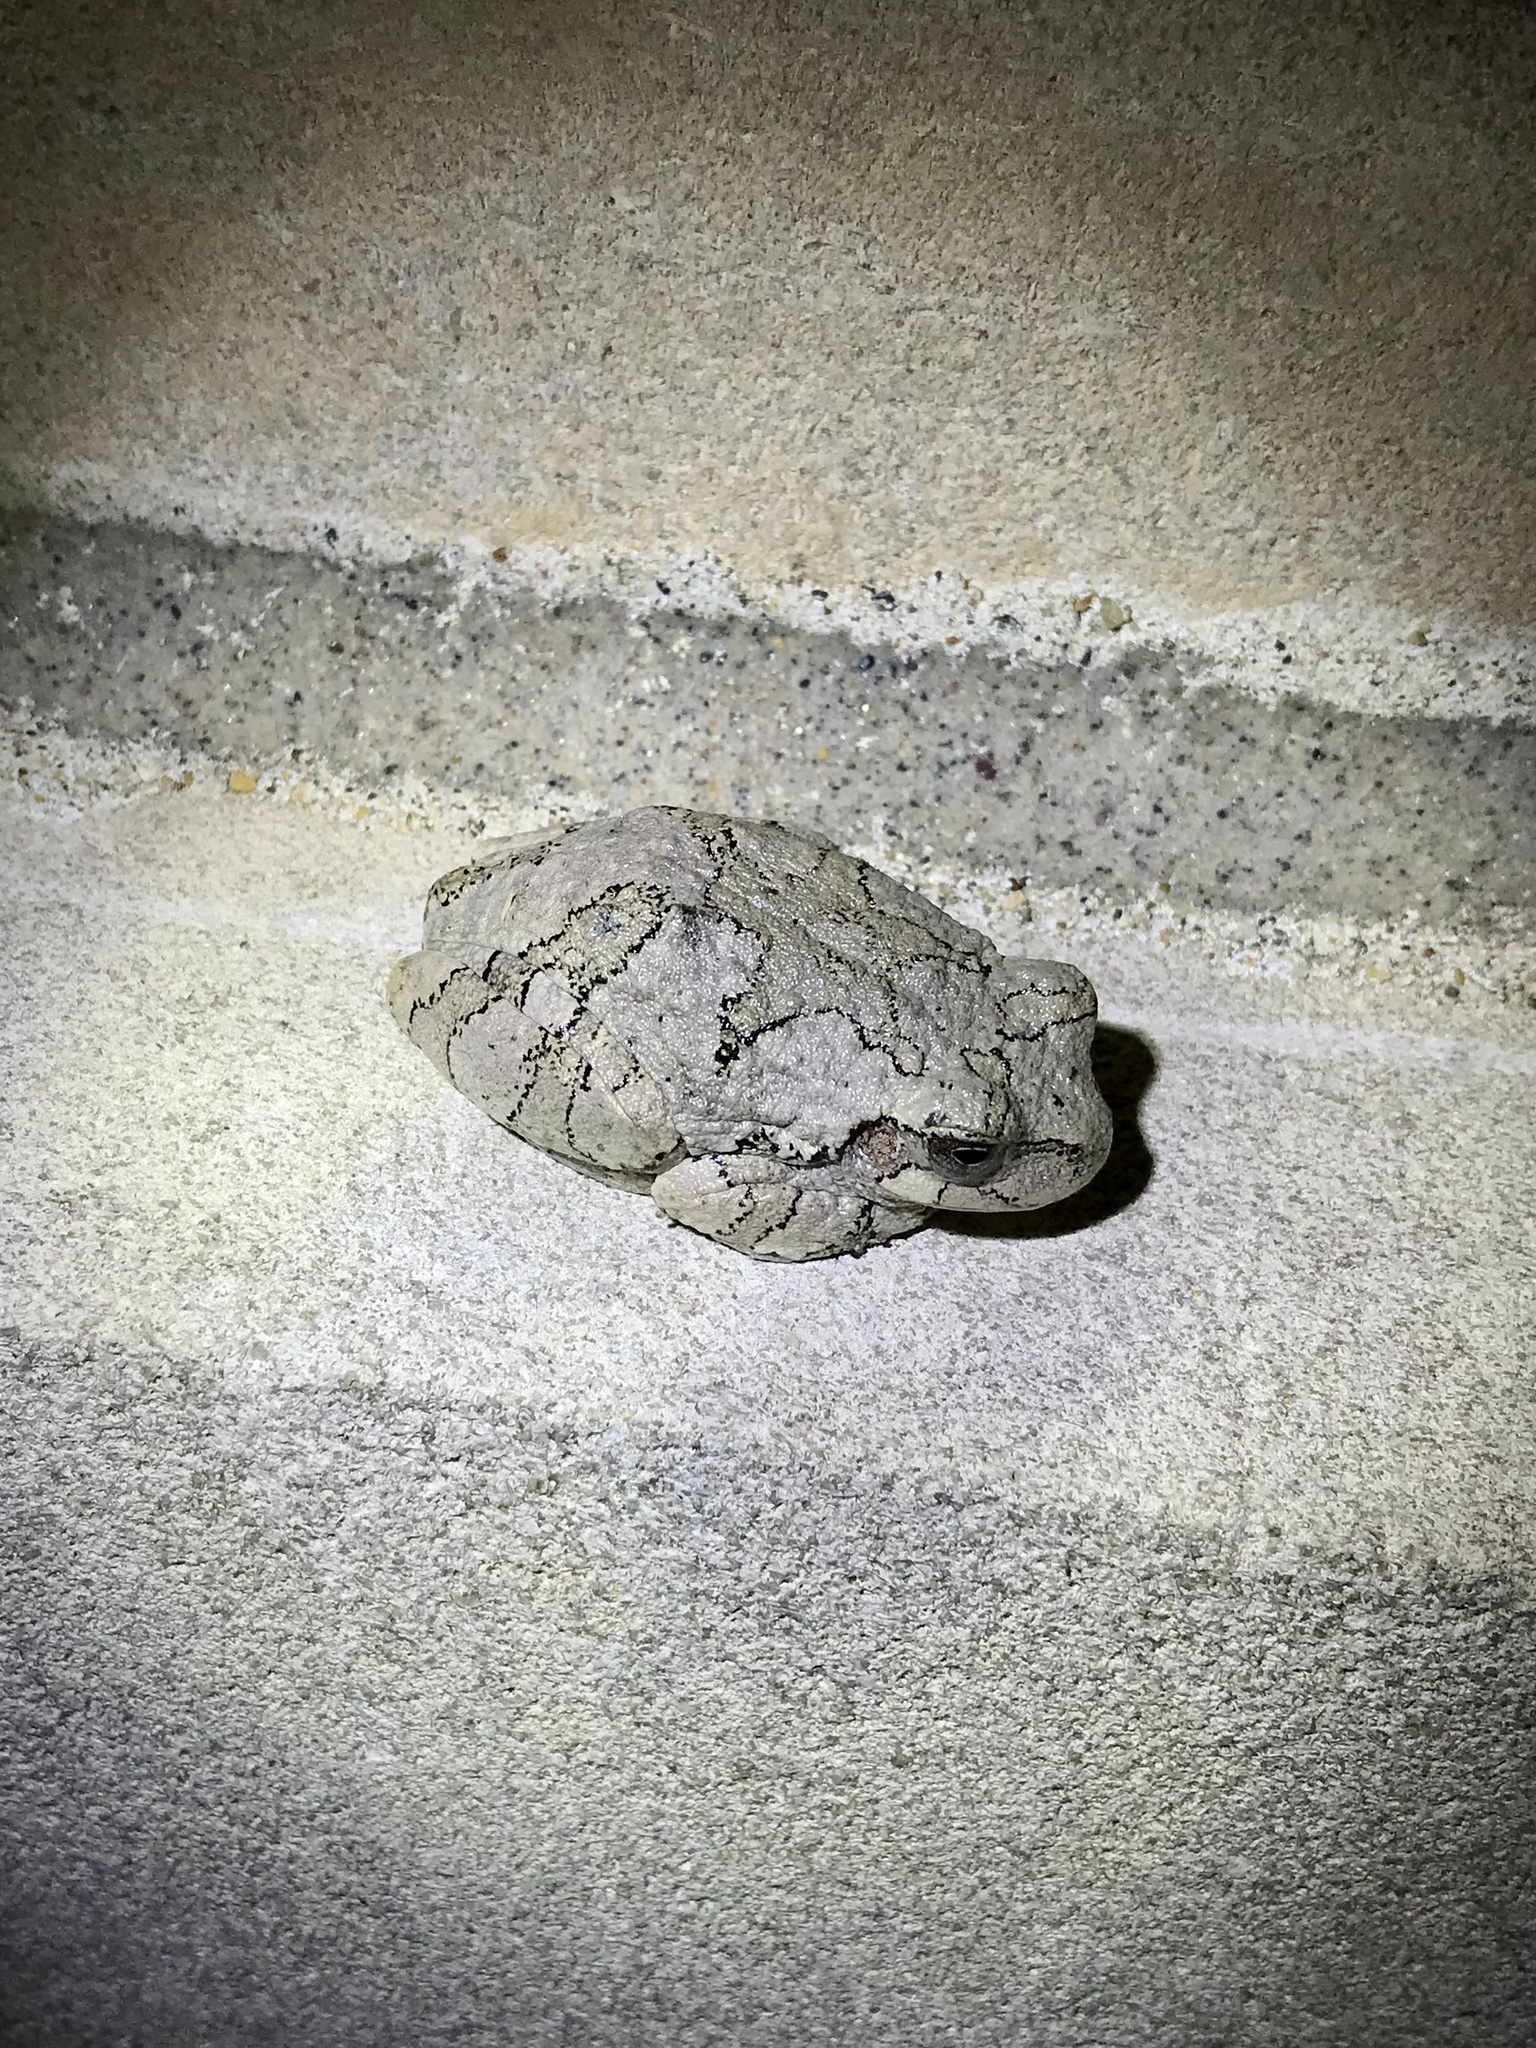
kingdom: Animalia
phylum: Chordata
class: Amphibia
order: Anura
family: Hylidae
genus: Hyla
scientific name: Hyla
